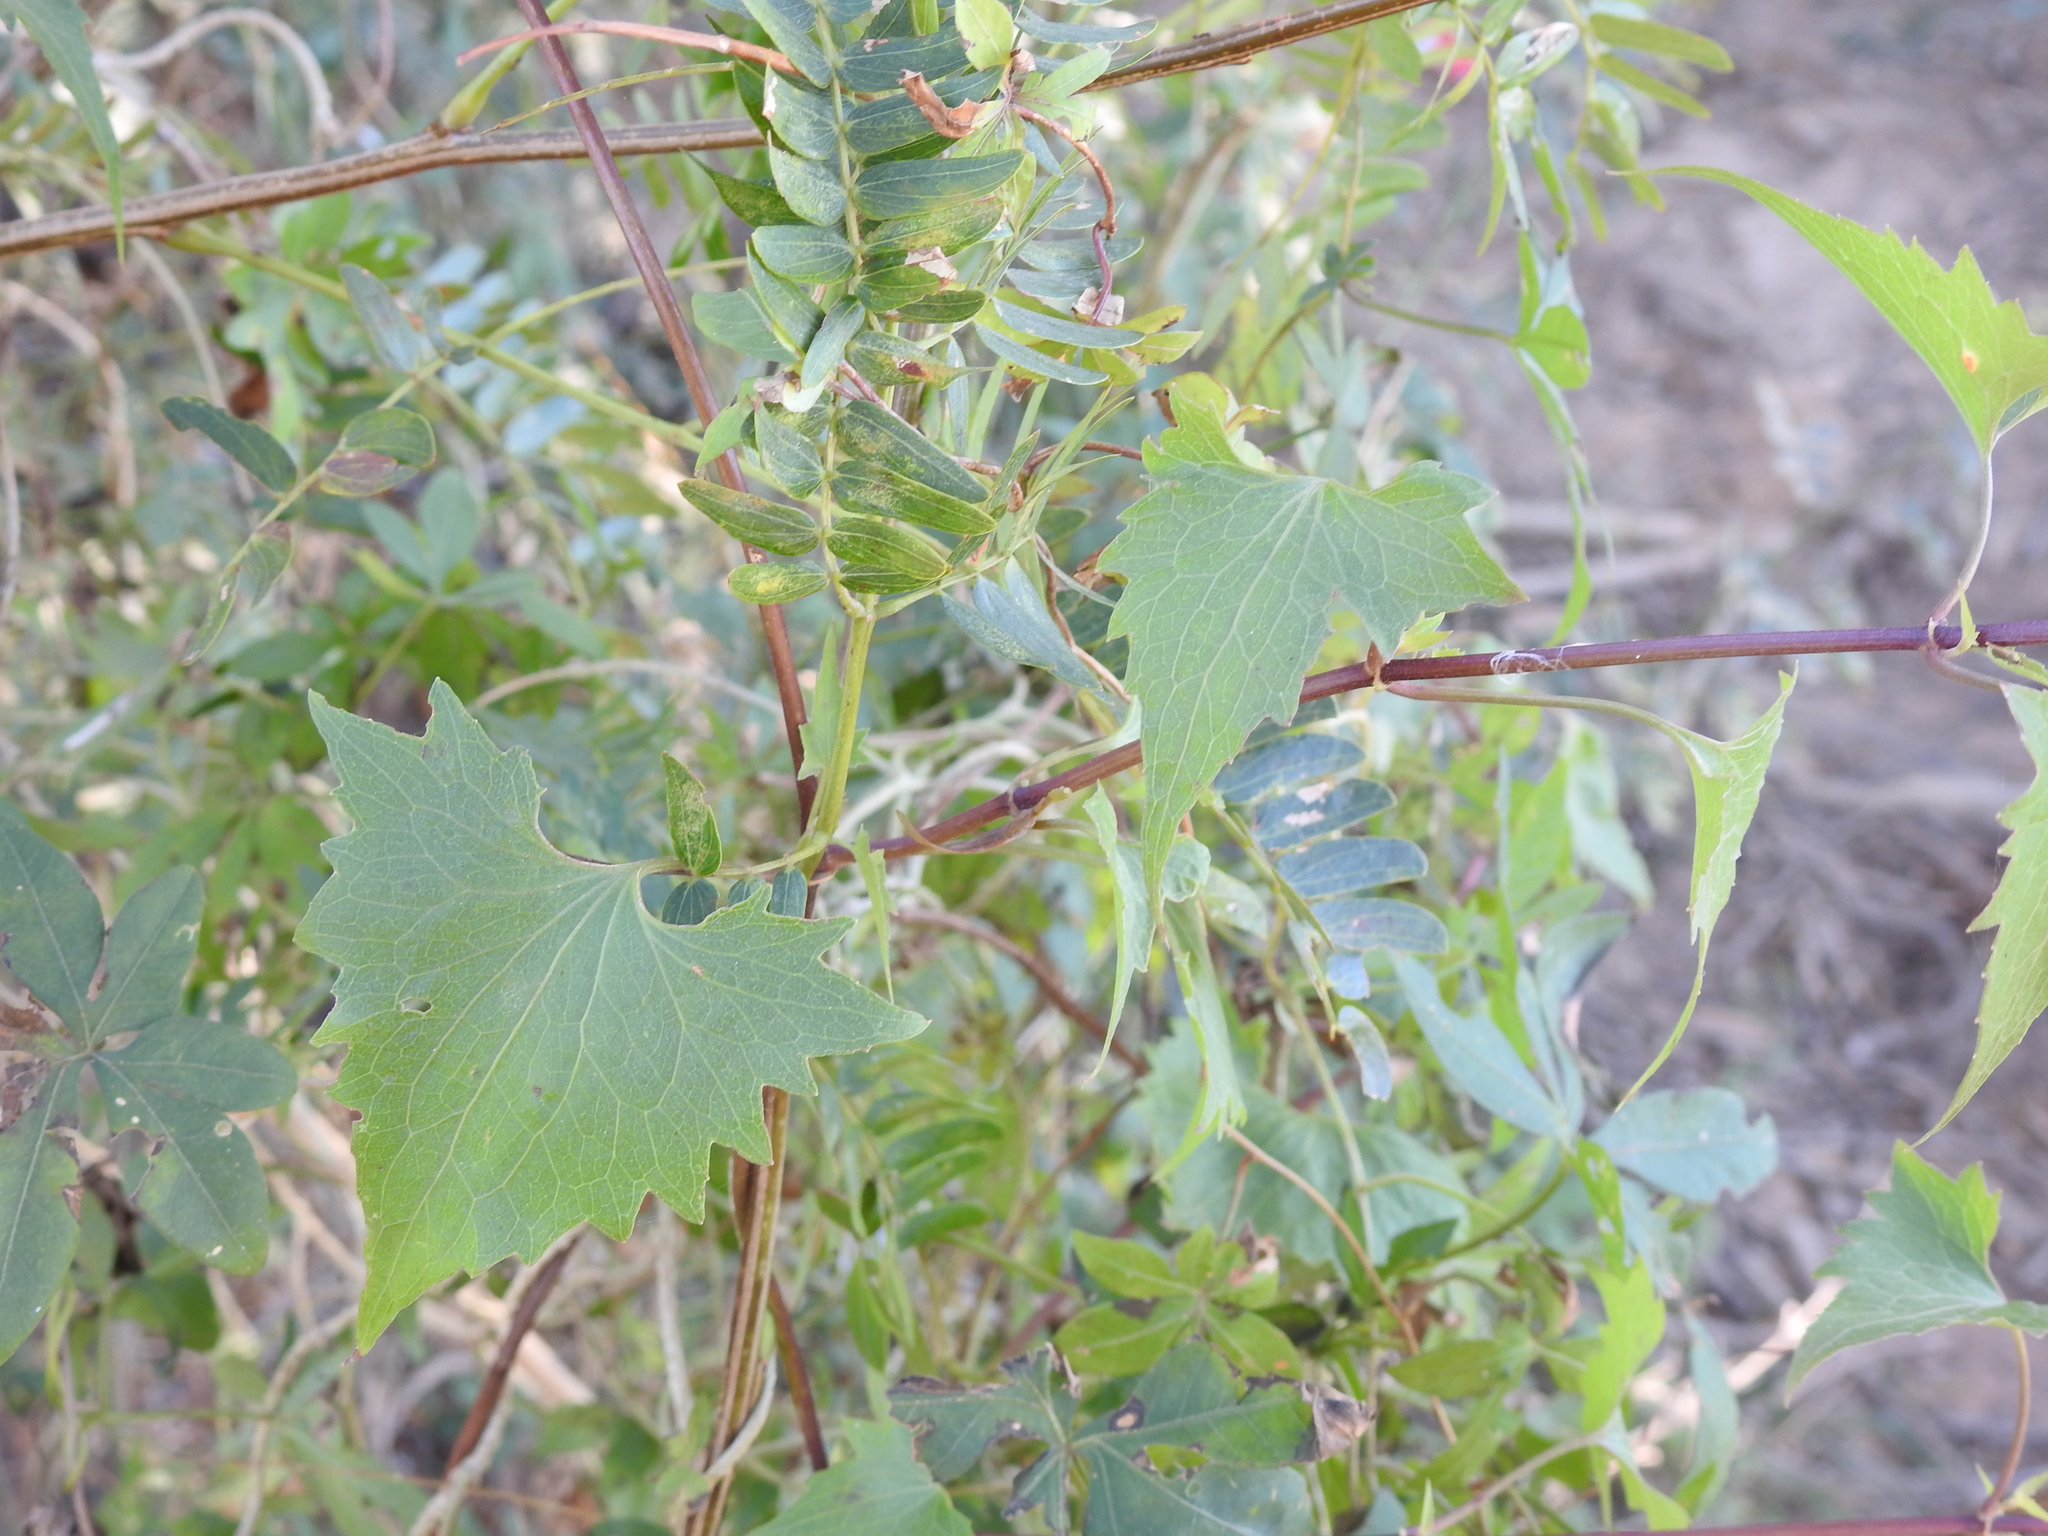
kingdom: Plantae
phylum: Tracheophyta
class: Magnoliopsida
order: Asterales
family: Asteraceae
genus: Mikania
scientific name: Mikania periplocifolia
